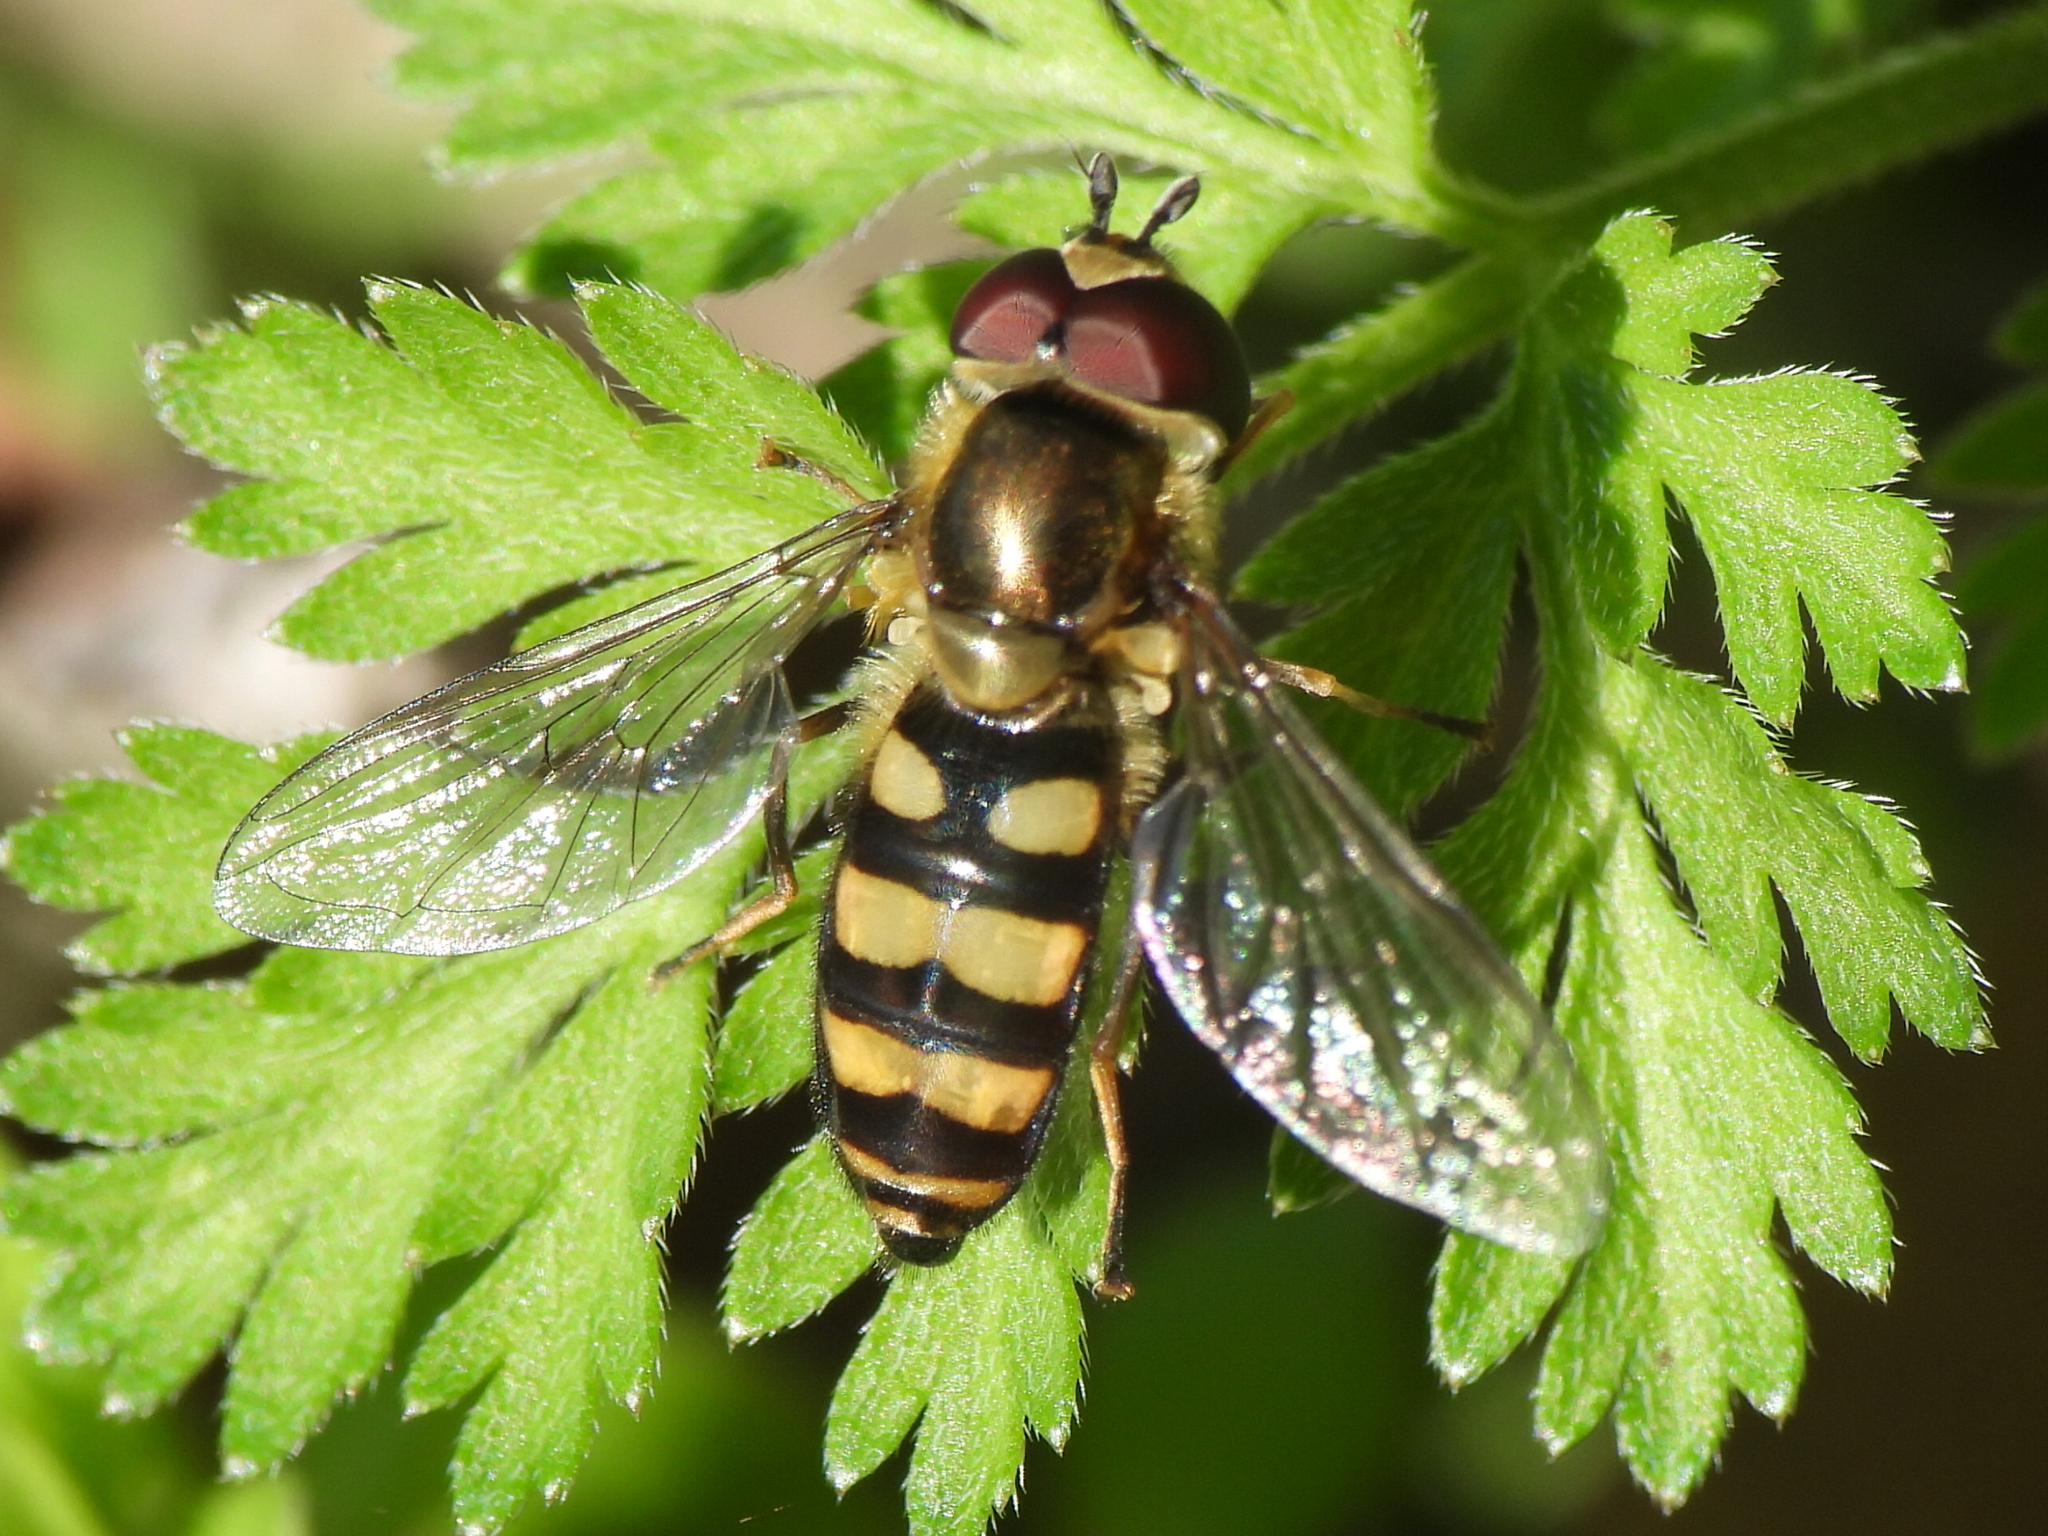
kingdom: Animalia
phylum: Arthropoda
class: Insecta
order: Diptera
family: Syrphidae
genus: Eupeodes
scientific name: Eupeodes
